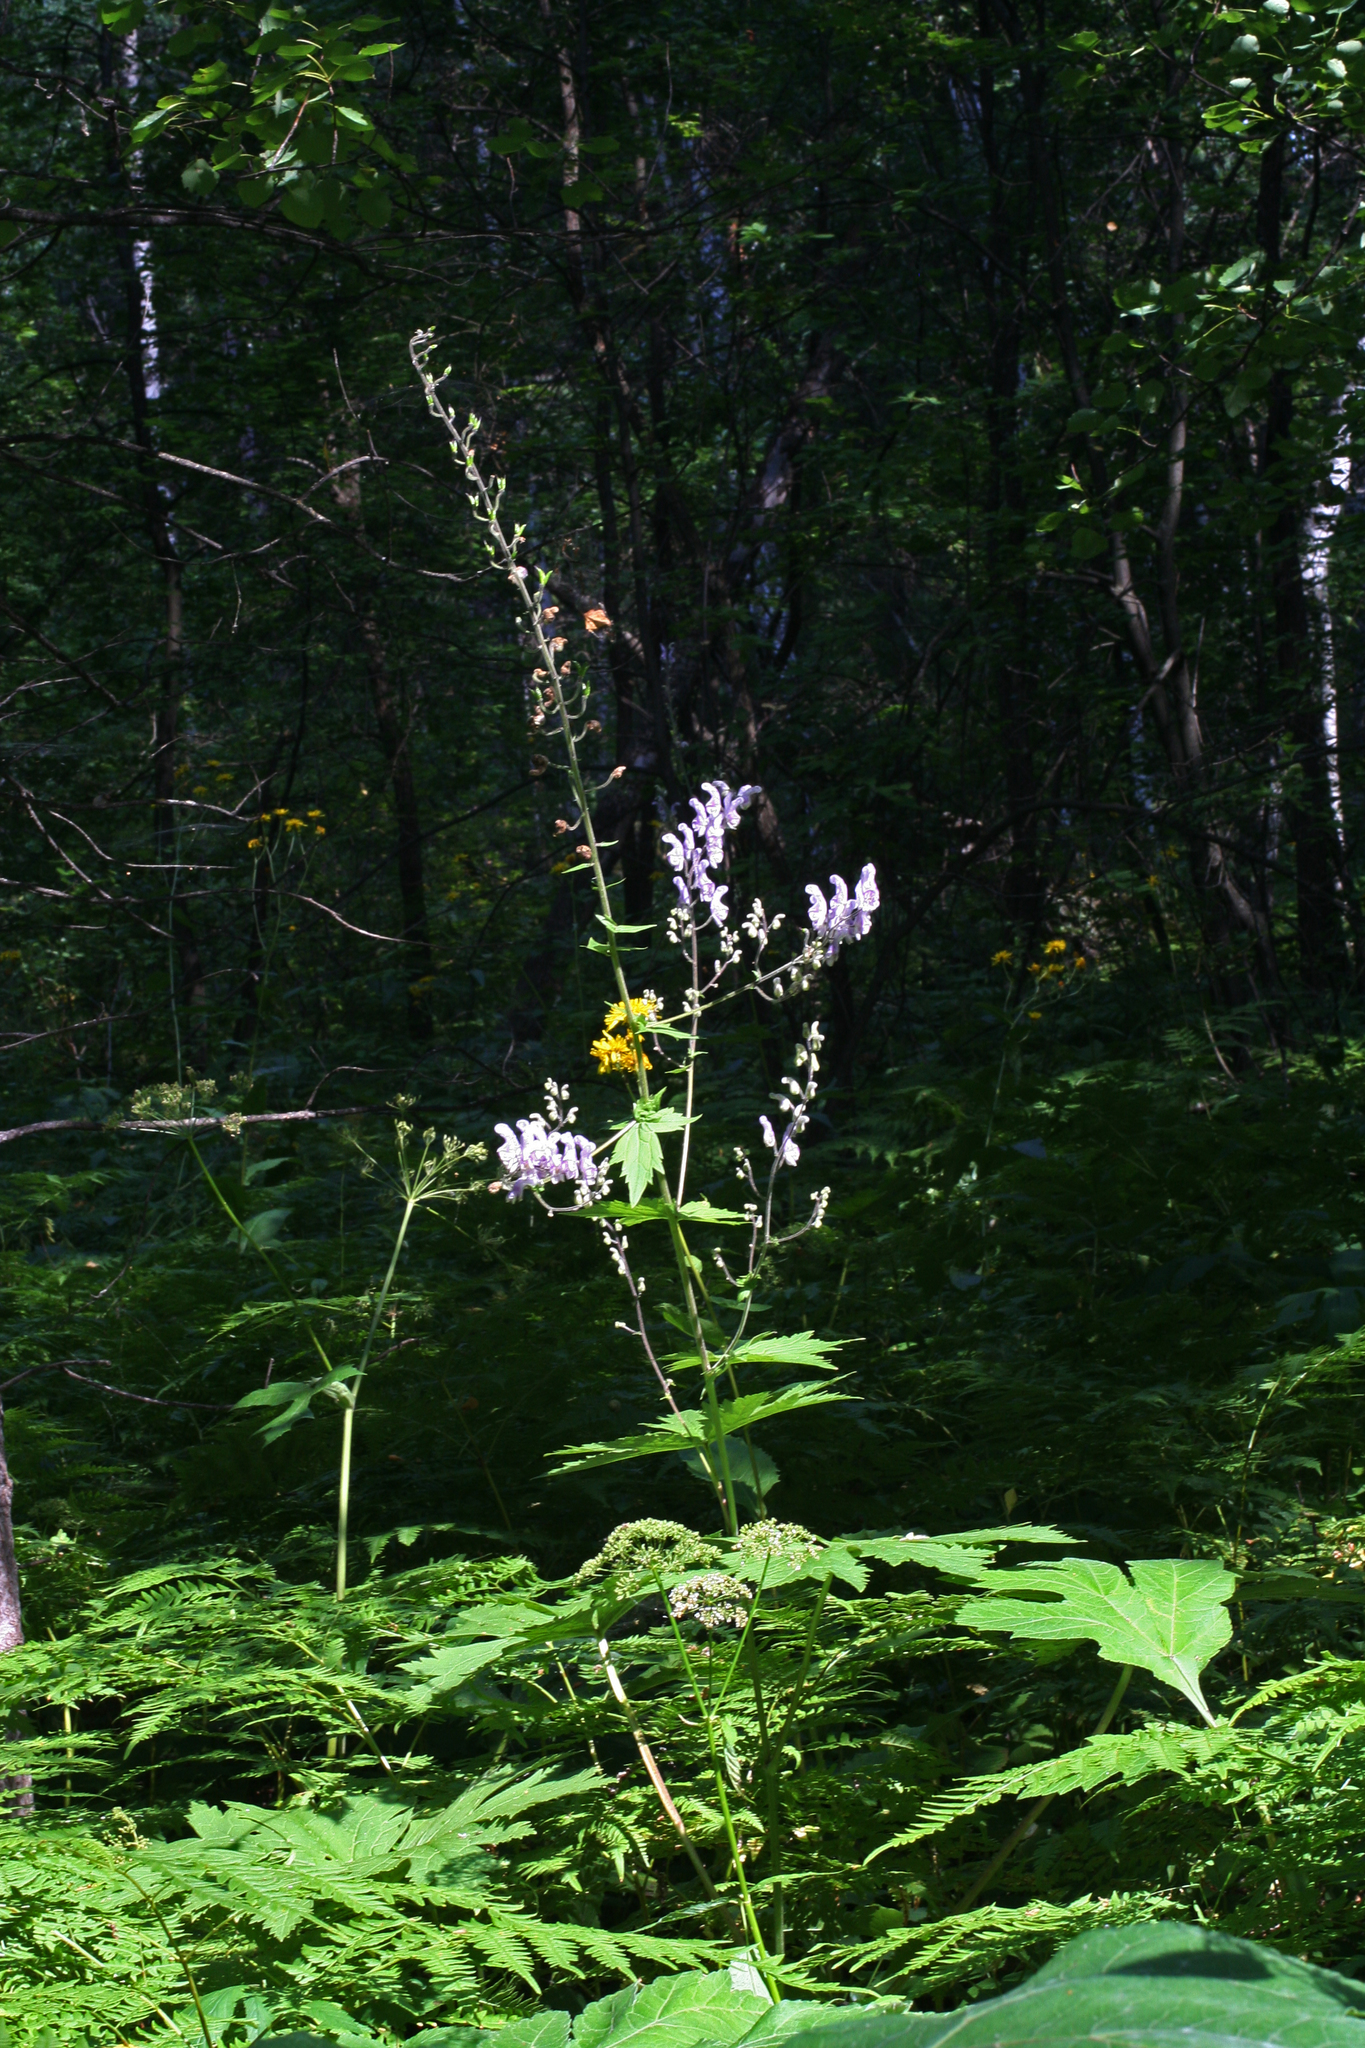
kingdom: Plantae
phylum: Tracheophyta
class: Magnoliopsida
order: Ranunculales
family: Ranunculaceae
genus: Aconitum
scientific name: Aconitum septentrionale
